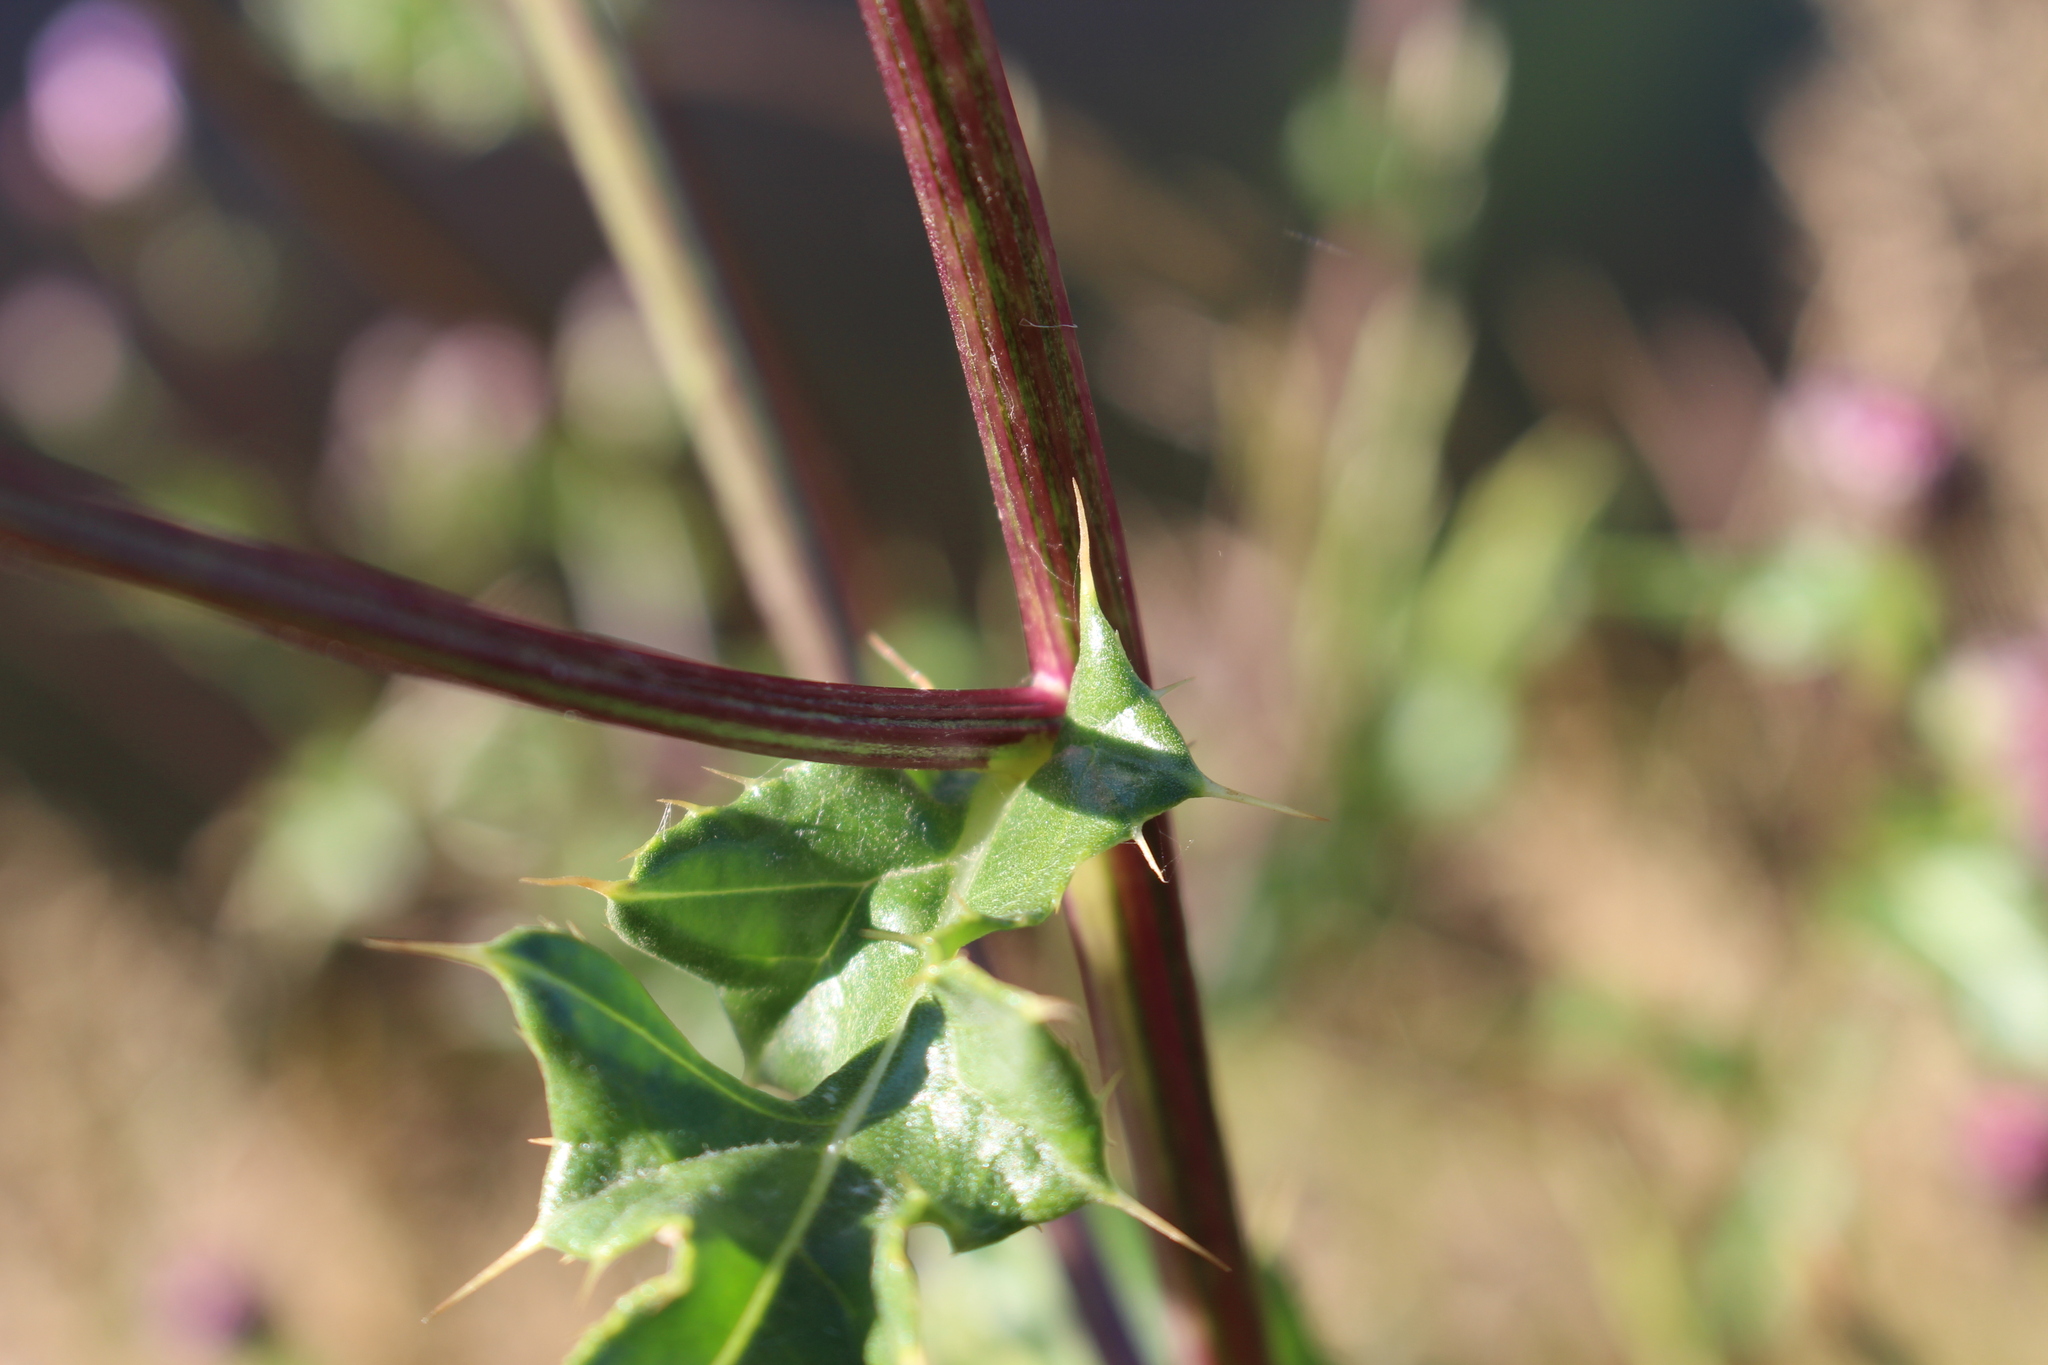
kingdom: Plantae
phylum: Tracheophyta
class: Magnoliopsida
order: Asterales
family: Asteraceae
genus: Cirsium
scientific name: Cirsium arvense
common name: Creeping thistle
